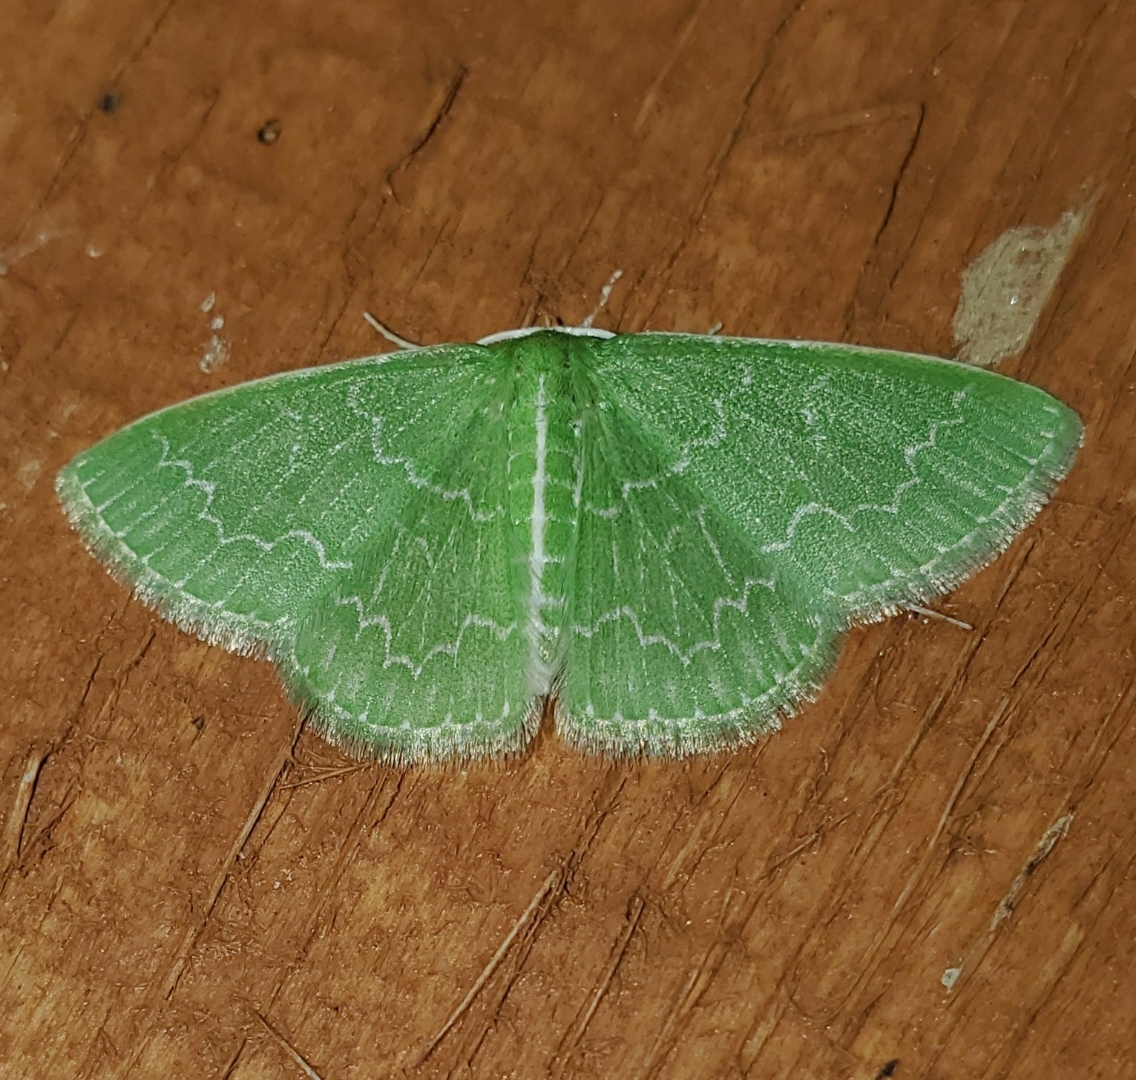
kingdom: Animalia
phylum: Arthropoda
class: Insecta
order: Lepidoptera
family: Geometridae
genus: Synchlora
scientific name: Synchlora frondaria
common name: Southern emerald
